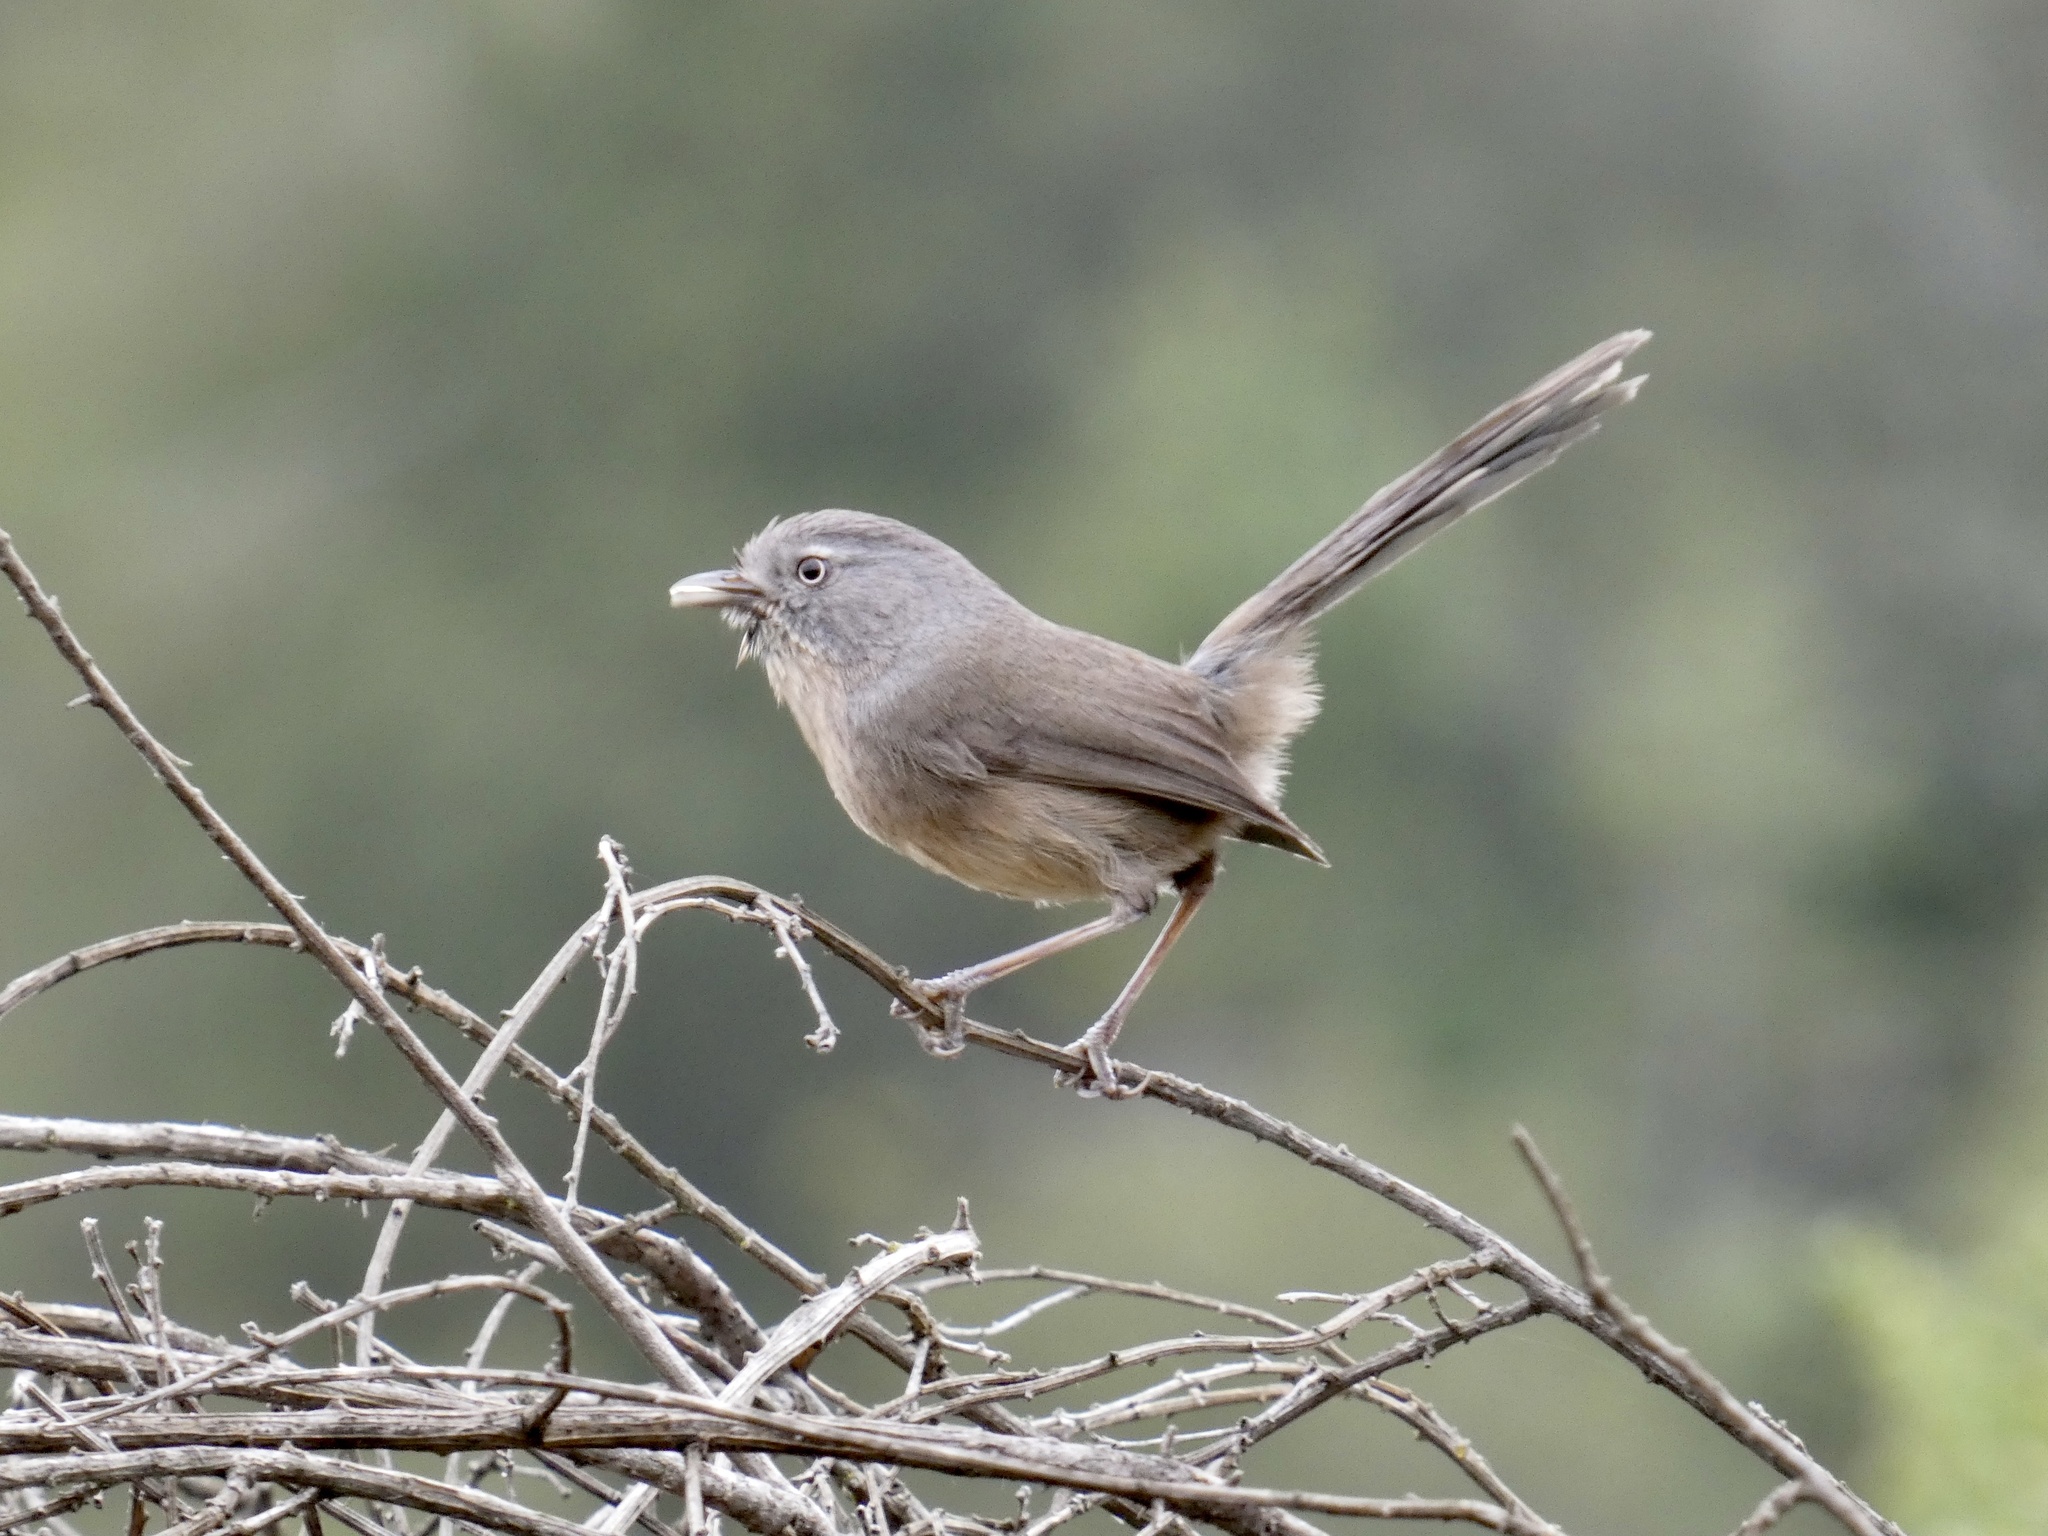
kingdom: Animalia
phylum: Chordata
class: Aves
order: Passeriformes
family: Sylviidae
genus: Chamaea
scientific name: Chamaea fasciata
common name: Wrentit
